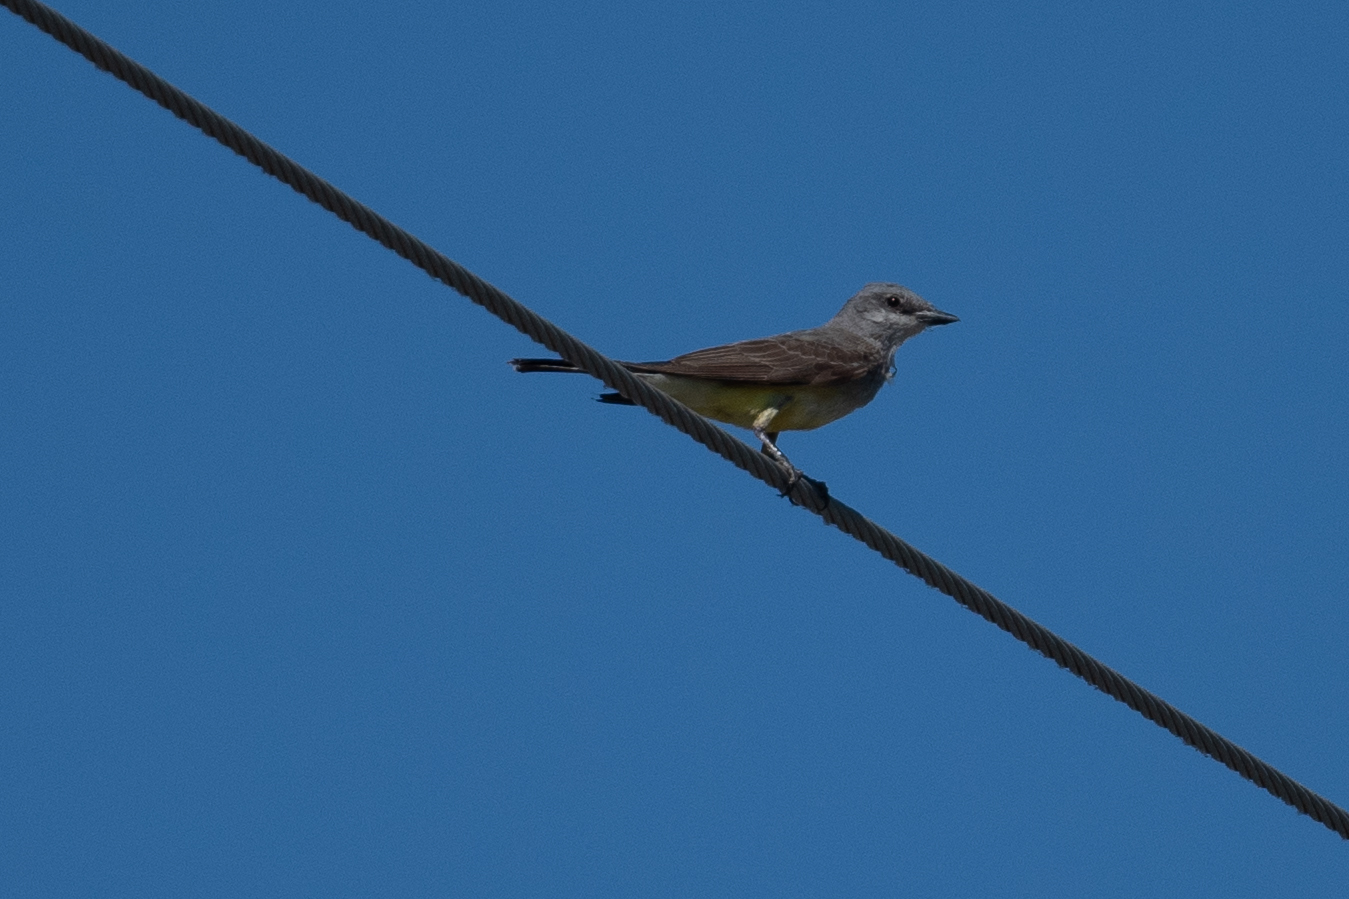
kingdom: Animalia
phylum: Chordata
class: Aves
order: Passeriformes
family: Tyrannidae
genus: Tyrannus
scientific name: Tyrannus verticalis
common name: Western kingbird
